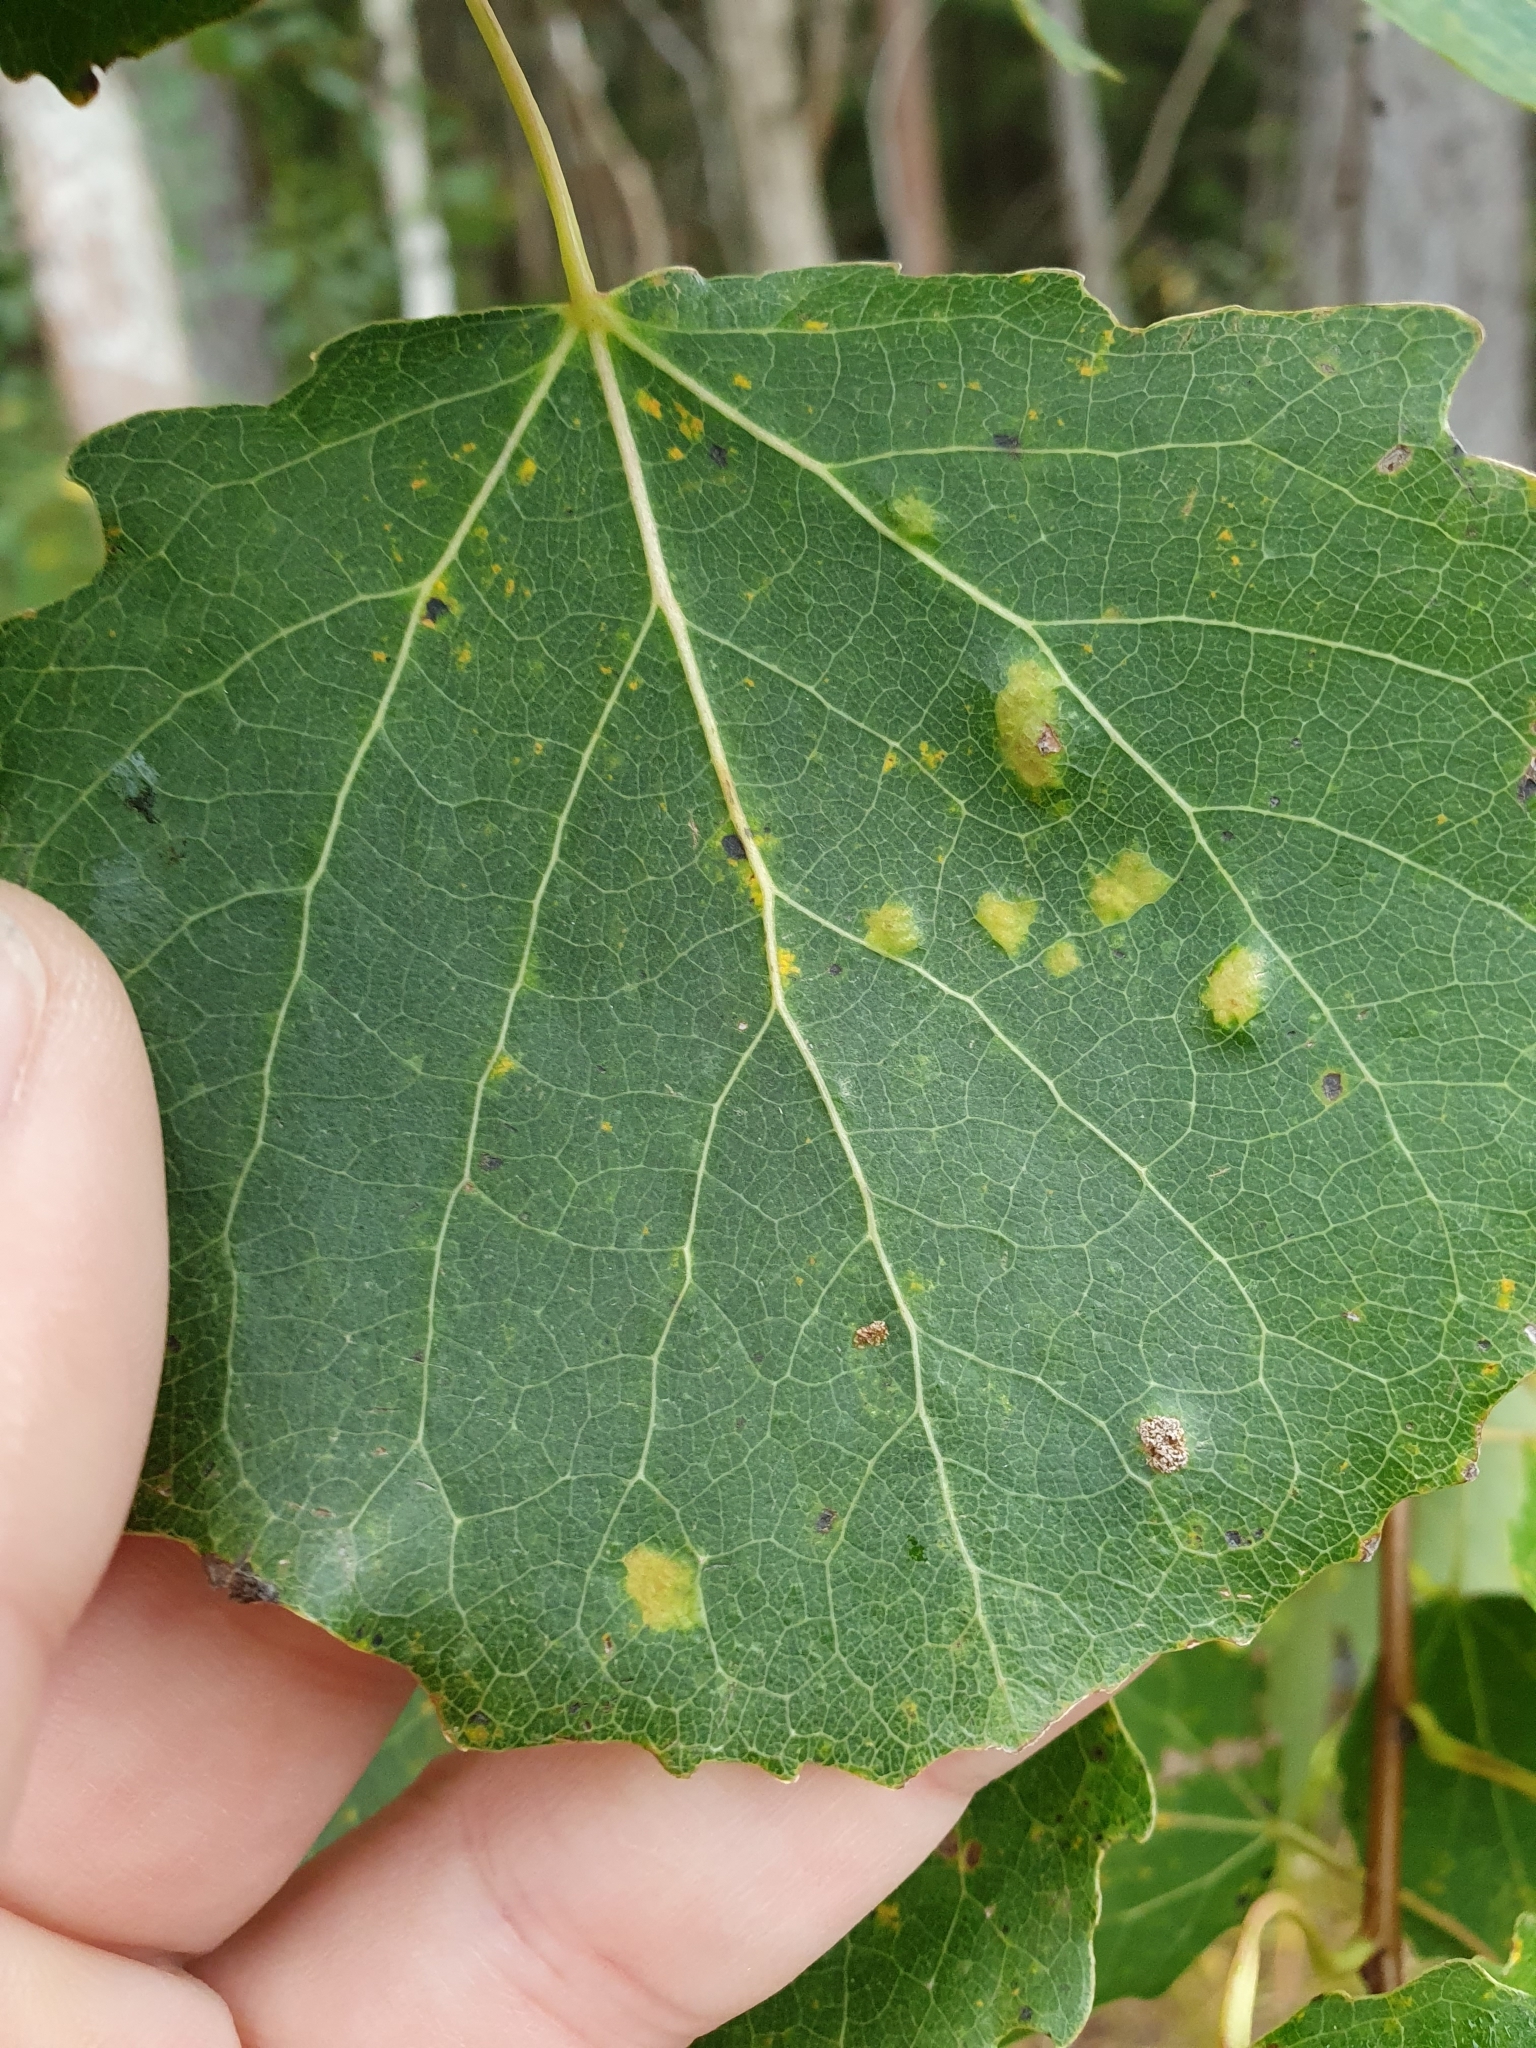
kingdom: Animalia
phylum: Arthropoda
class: Arachnida
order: Trombidiformes
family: Eriophyidae
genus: Phyllocoptes
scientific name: Phyllocoptes populi
